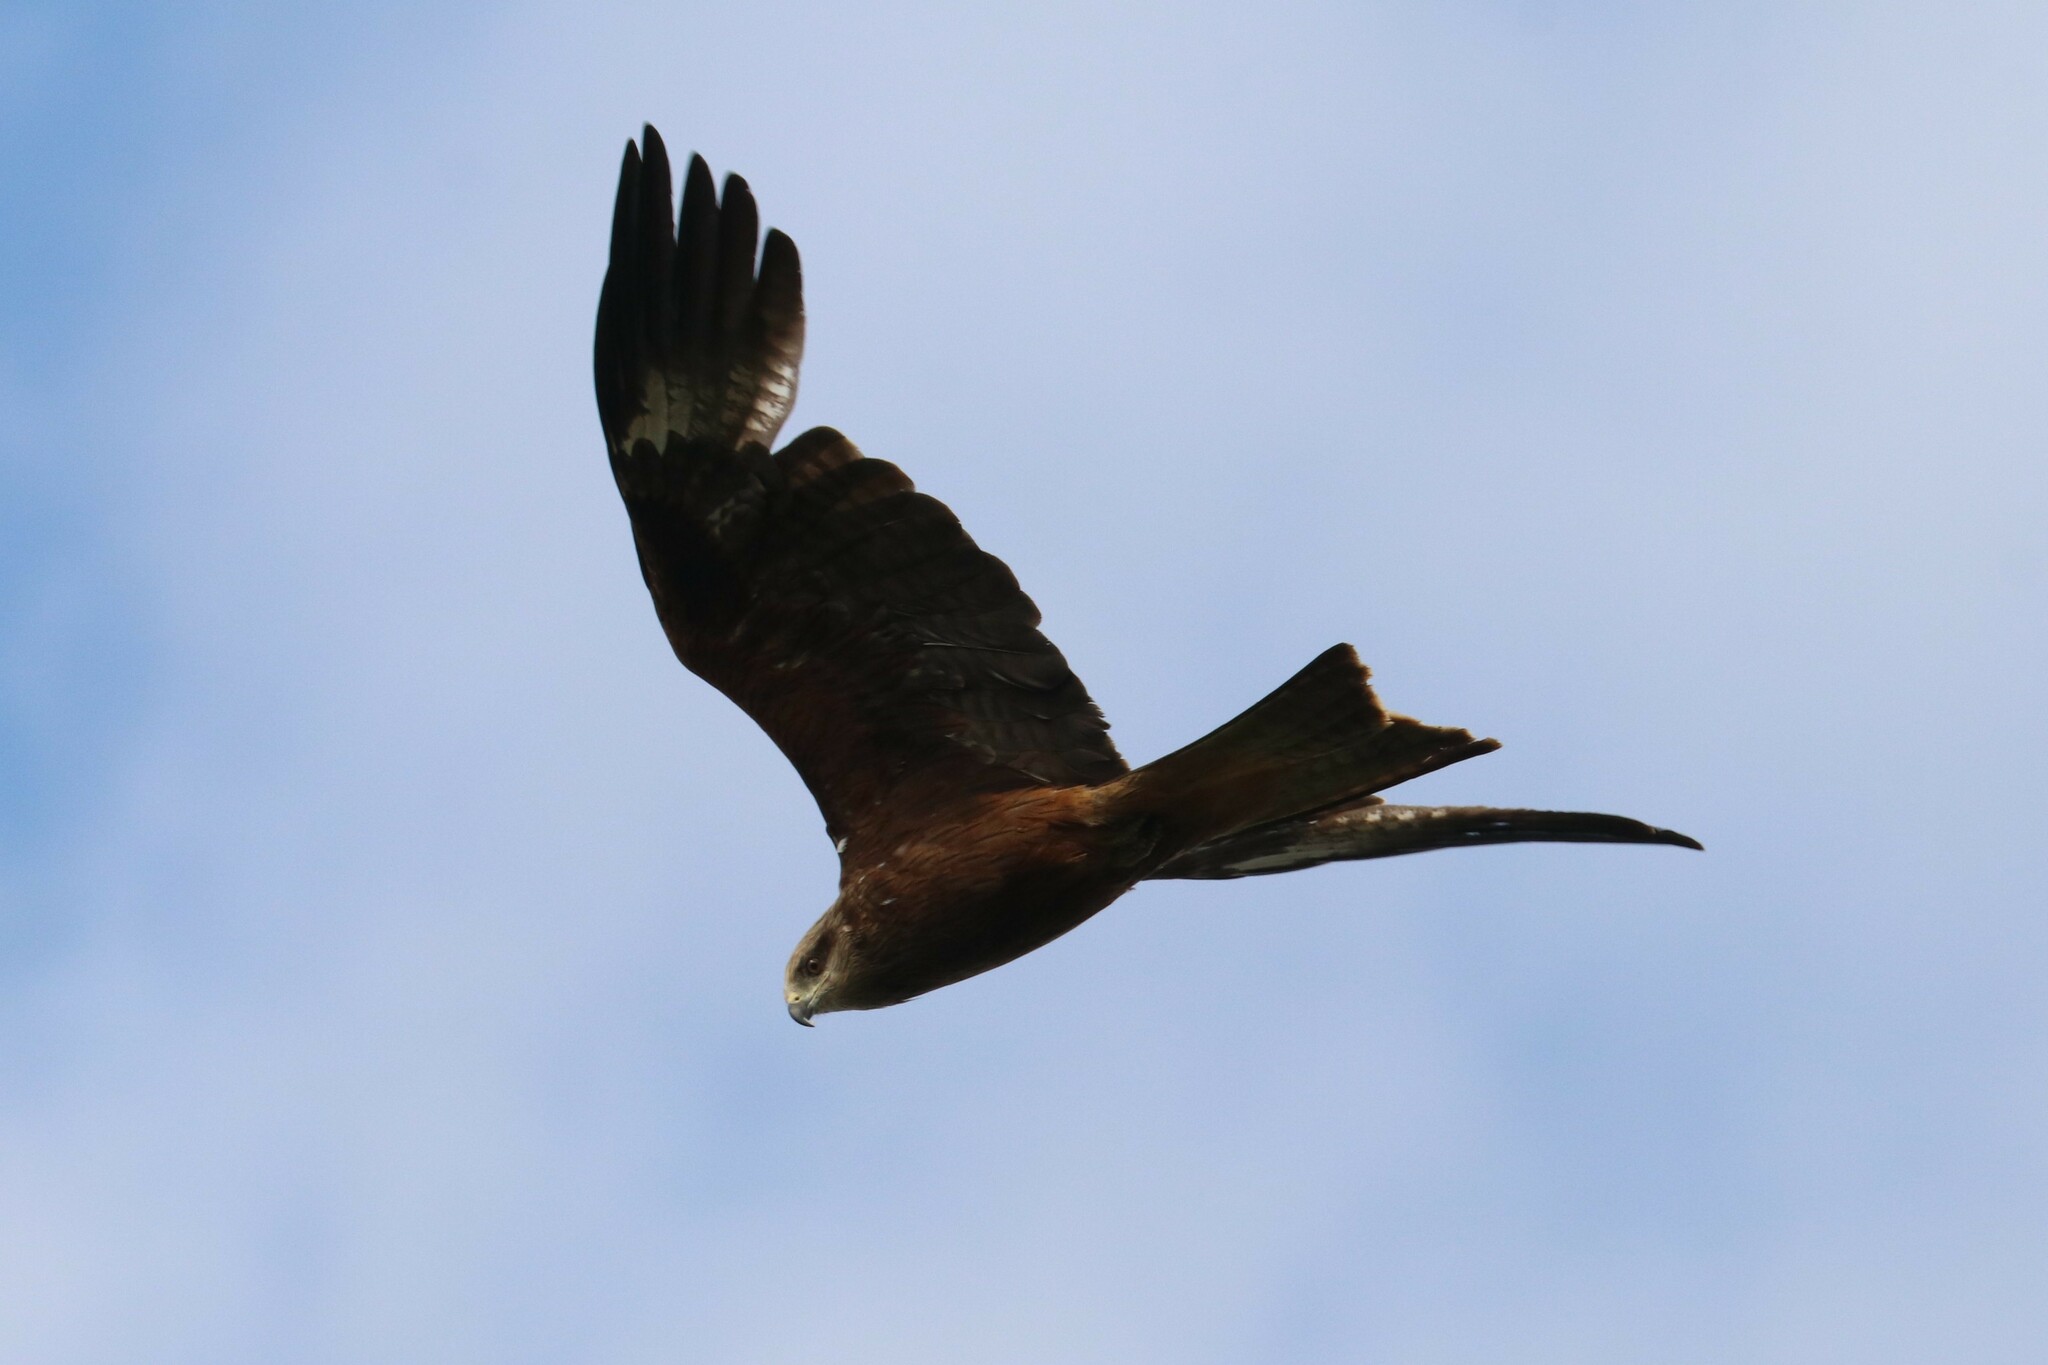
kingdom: Animalia
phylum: Chordata
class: Aves
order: Accipitriformes
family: Accipitridae
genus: Milvus
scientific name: Milvus migrans
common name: Black kite
